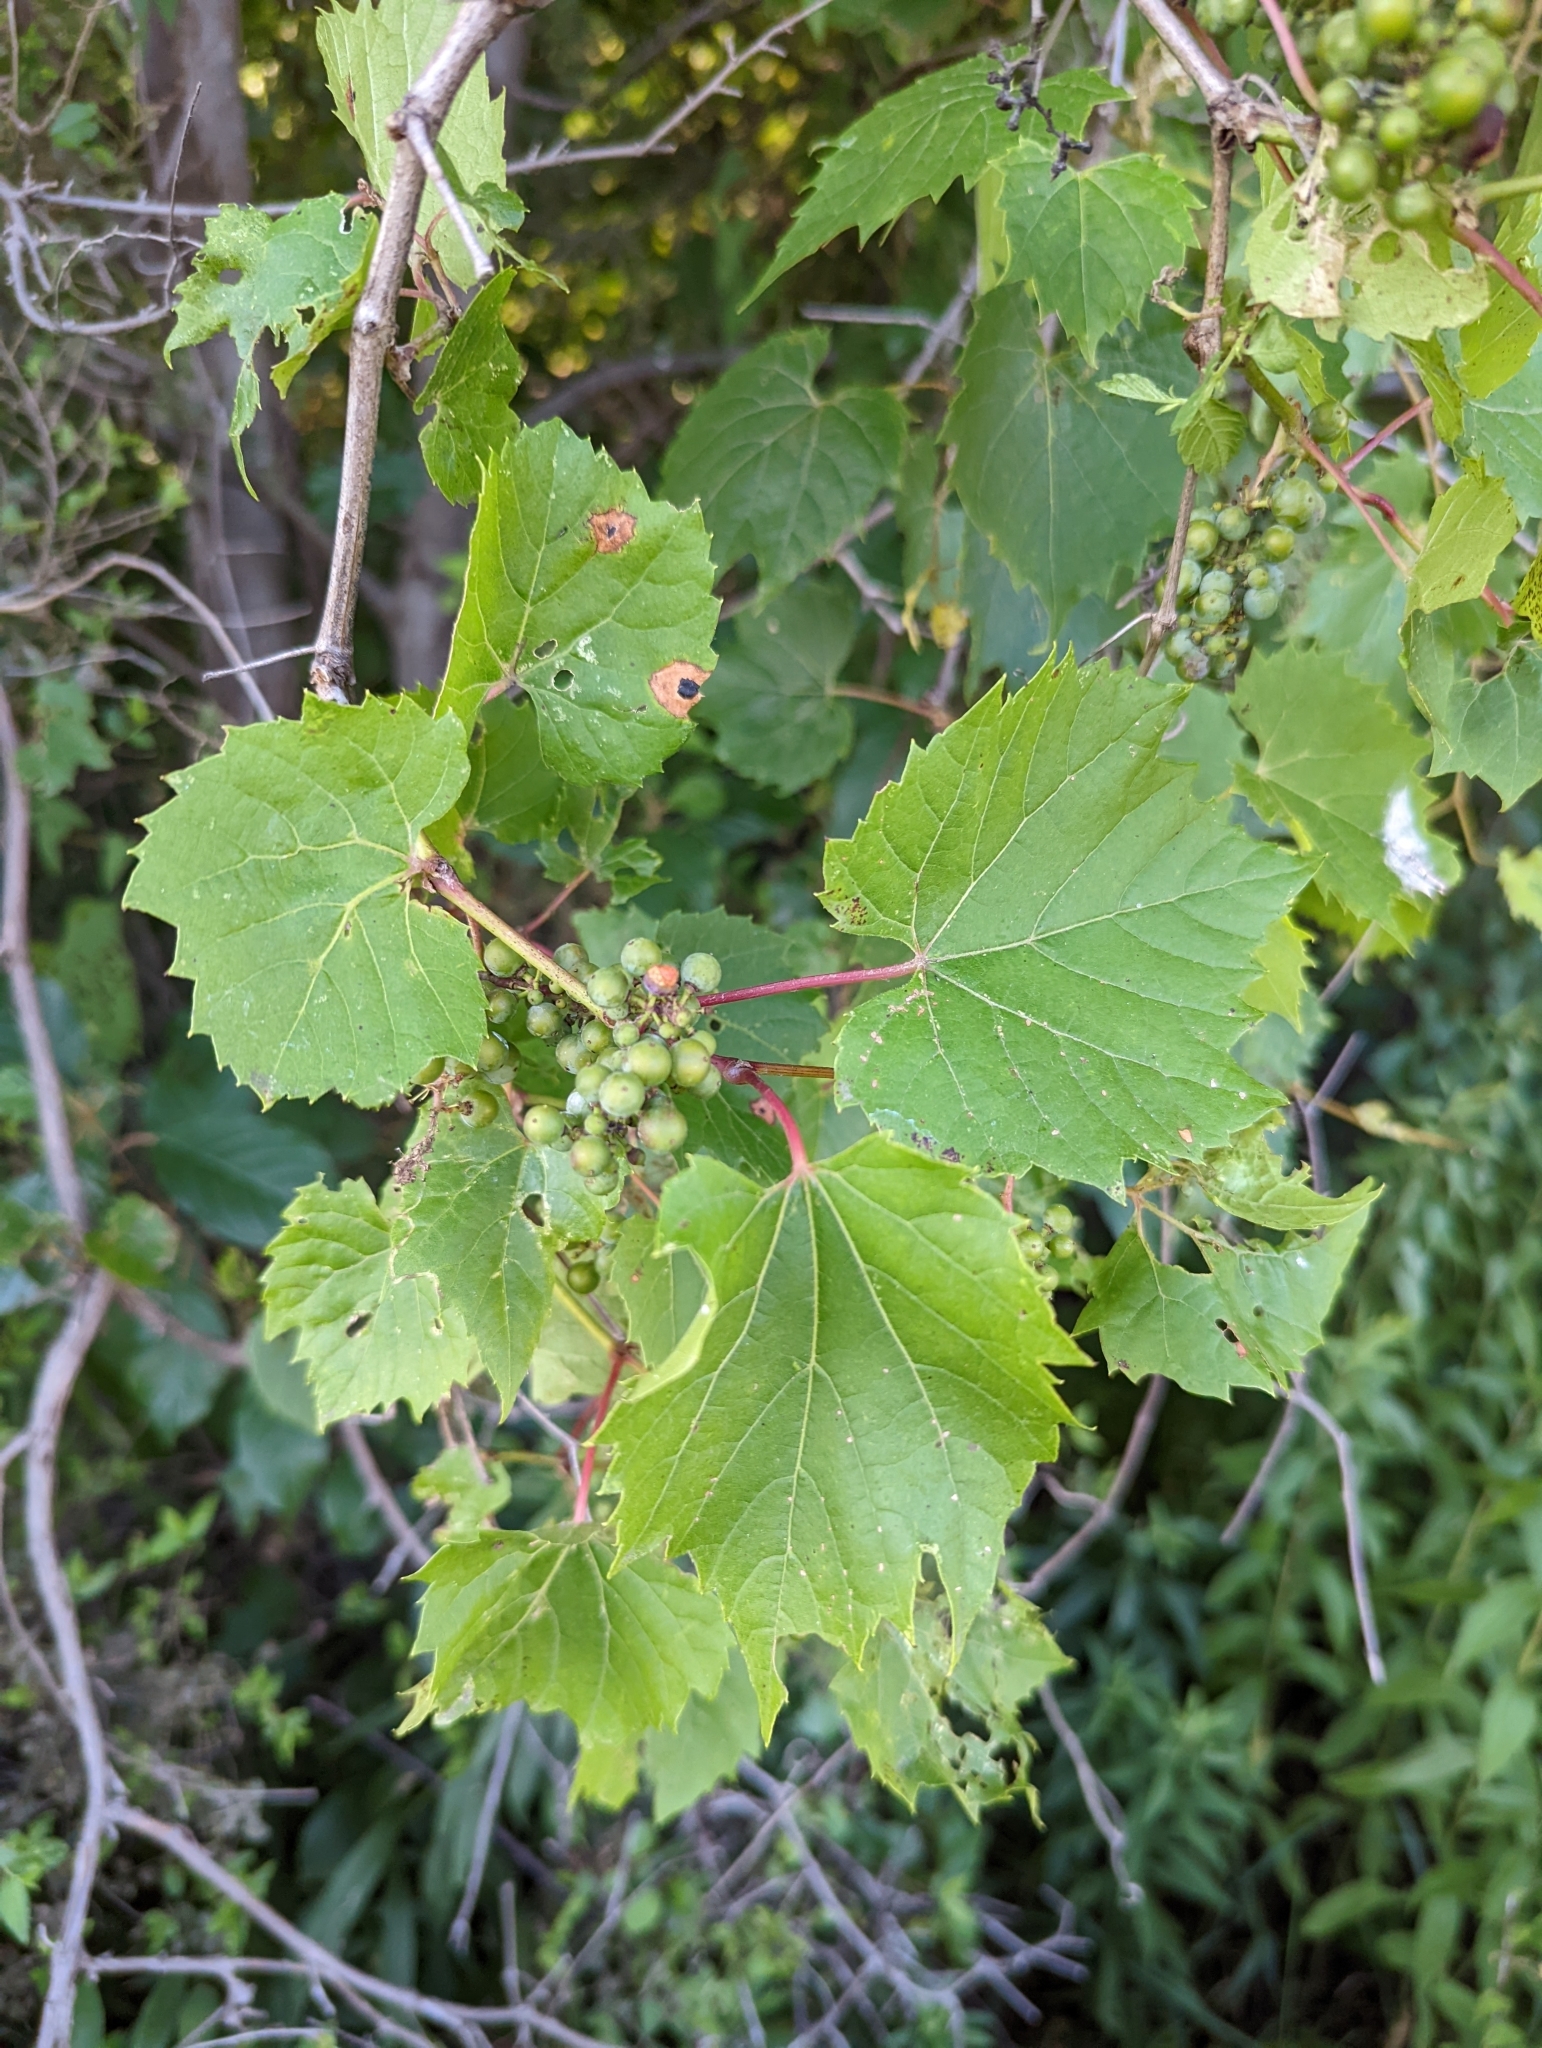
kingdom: Plantae
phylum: Tracheophyta
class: Magnoliopsida
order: Vitales
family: Vitaceae
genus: Vitis
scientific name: Vitis riparia
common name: Frost grape
